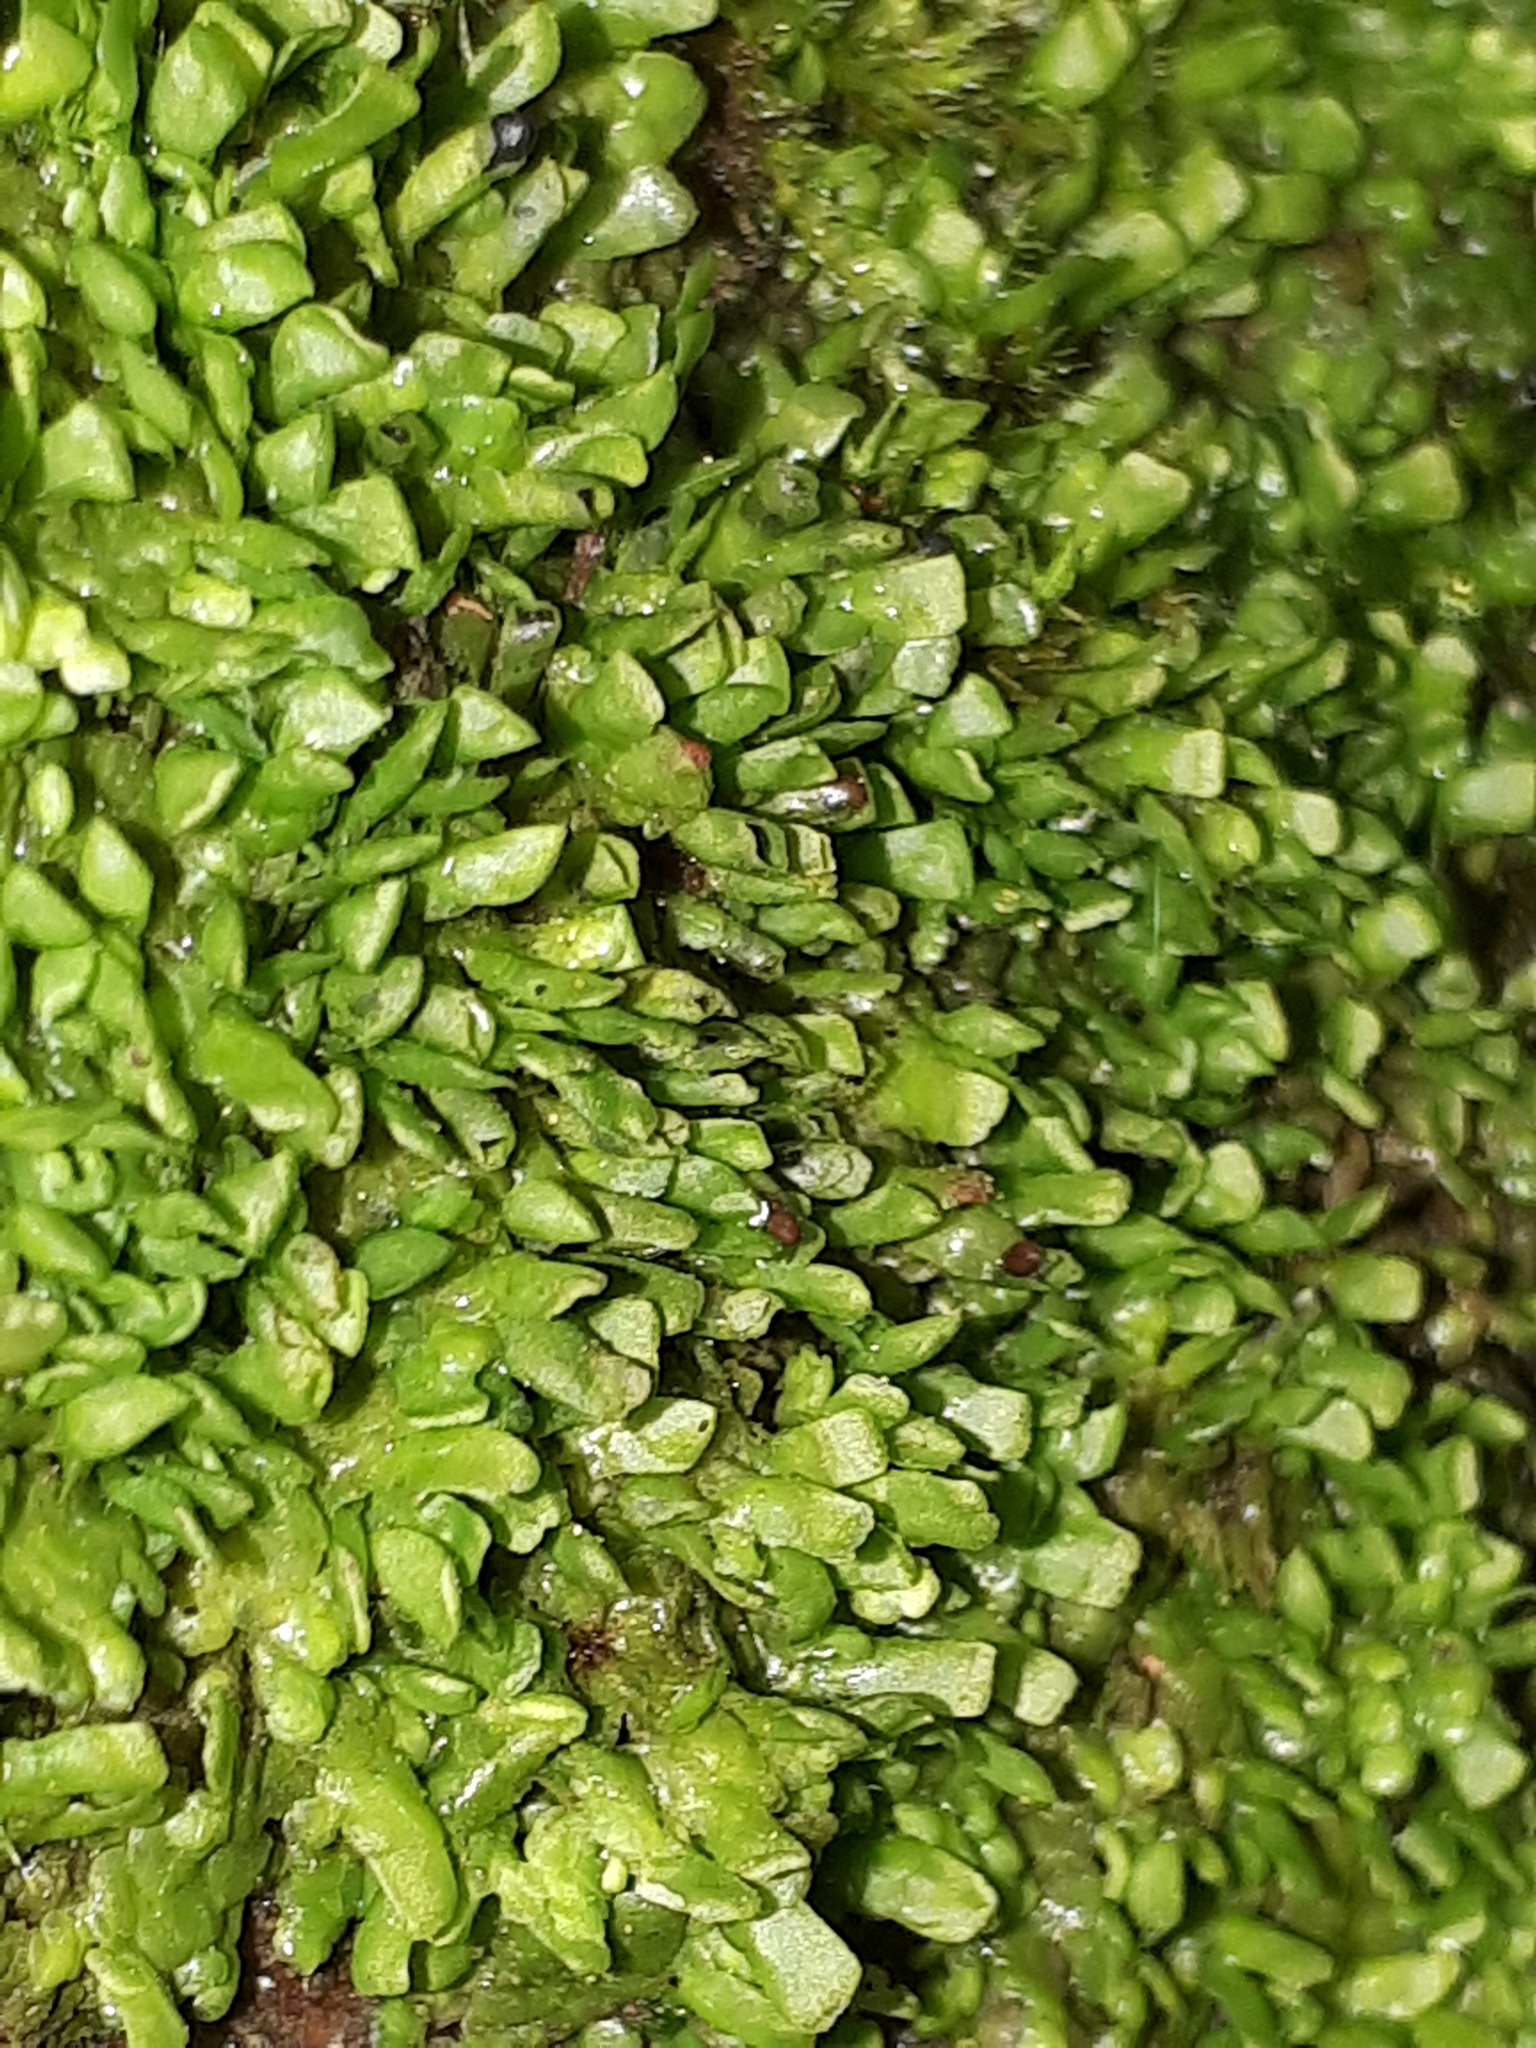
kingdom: Plantae
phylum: Marchantiophyta
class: Jungermanniopsida
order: Porellales
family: Radulaceae
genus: Radula
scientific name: Radula complanata
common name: Flat-leaved scalewort
